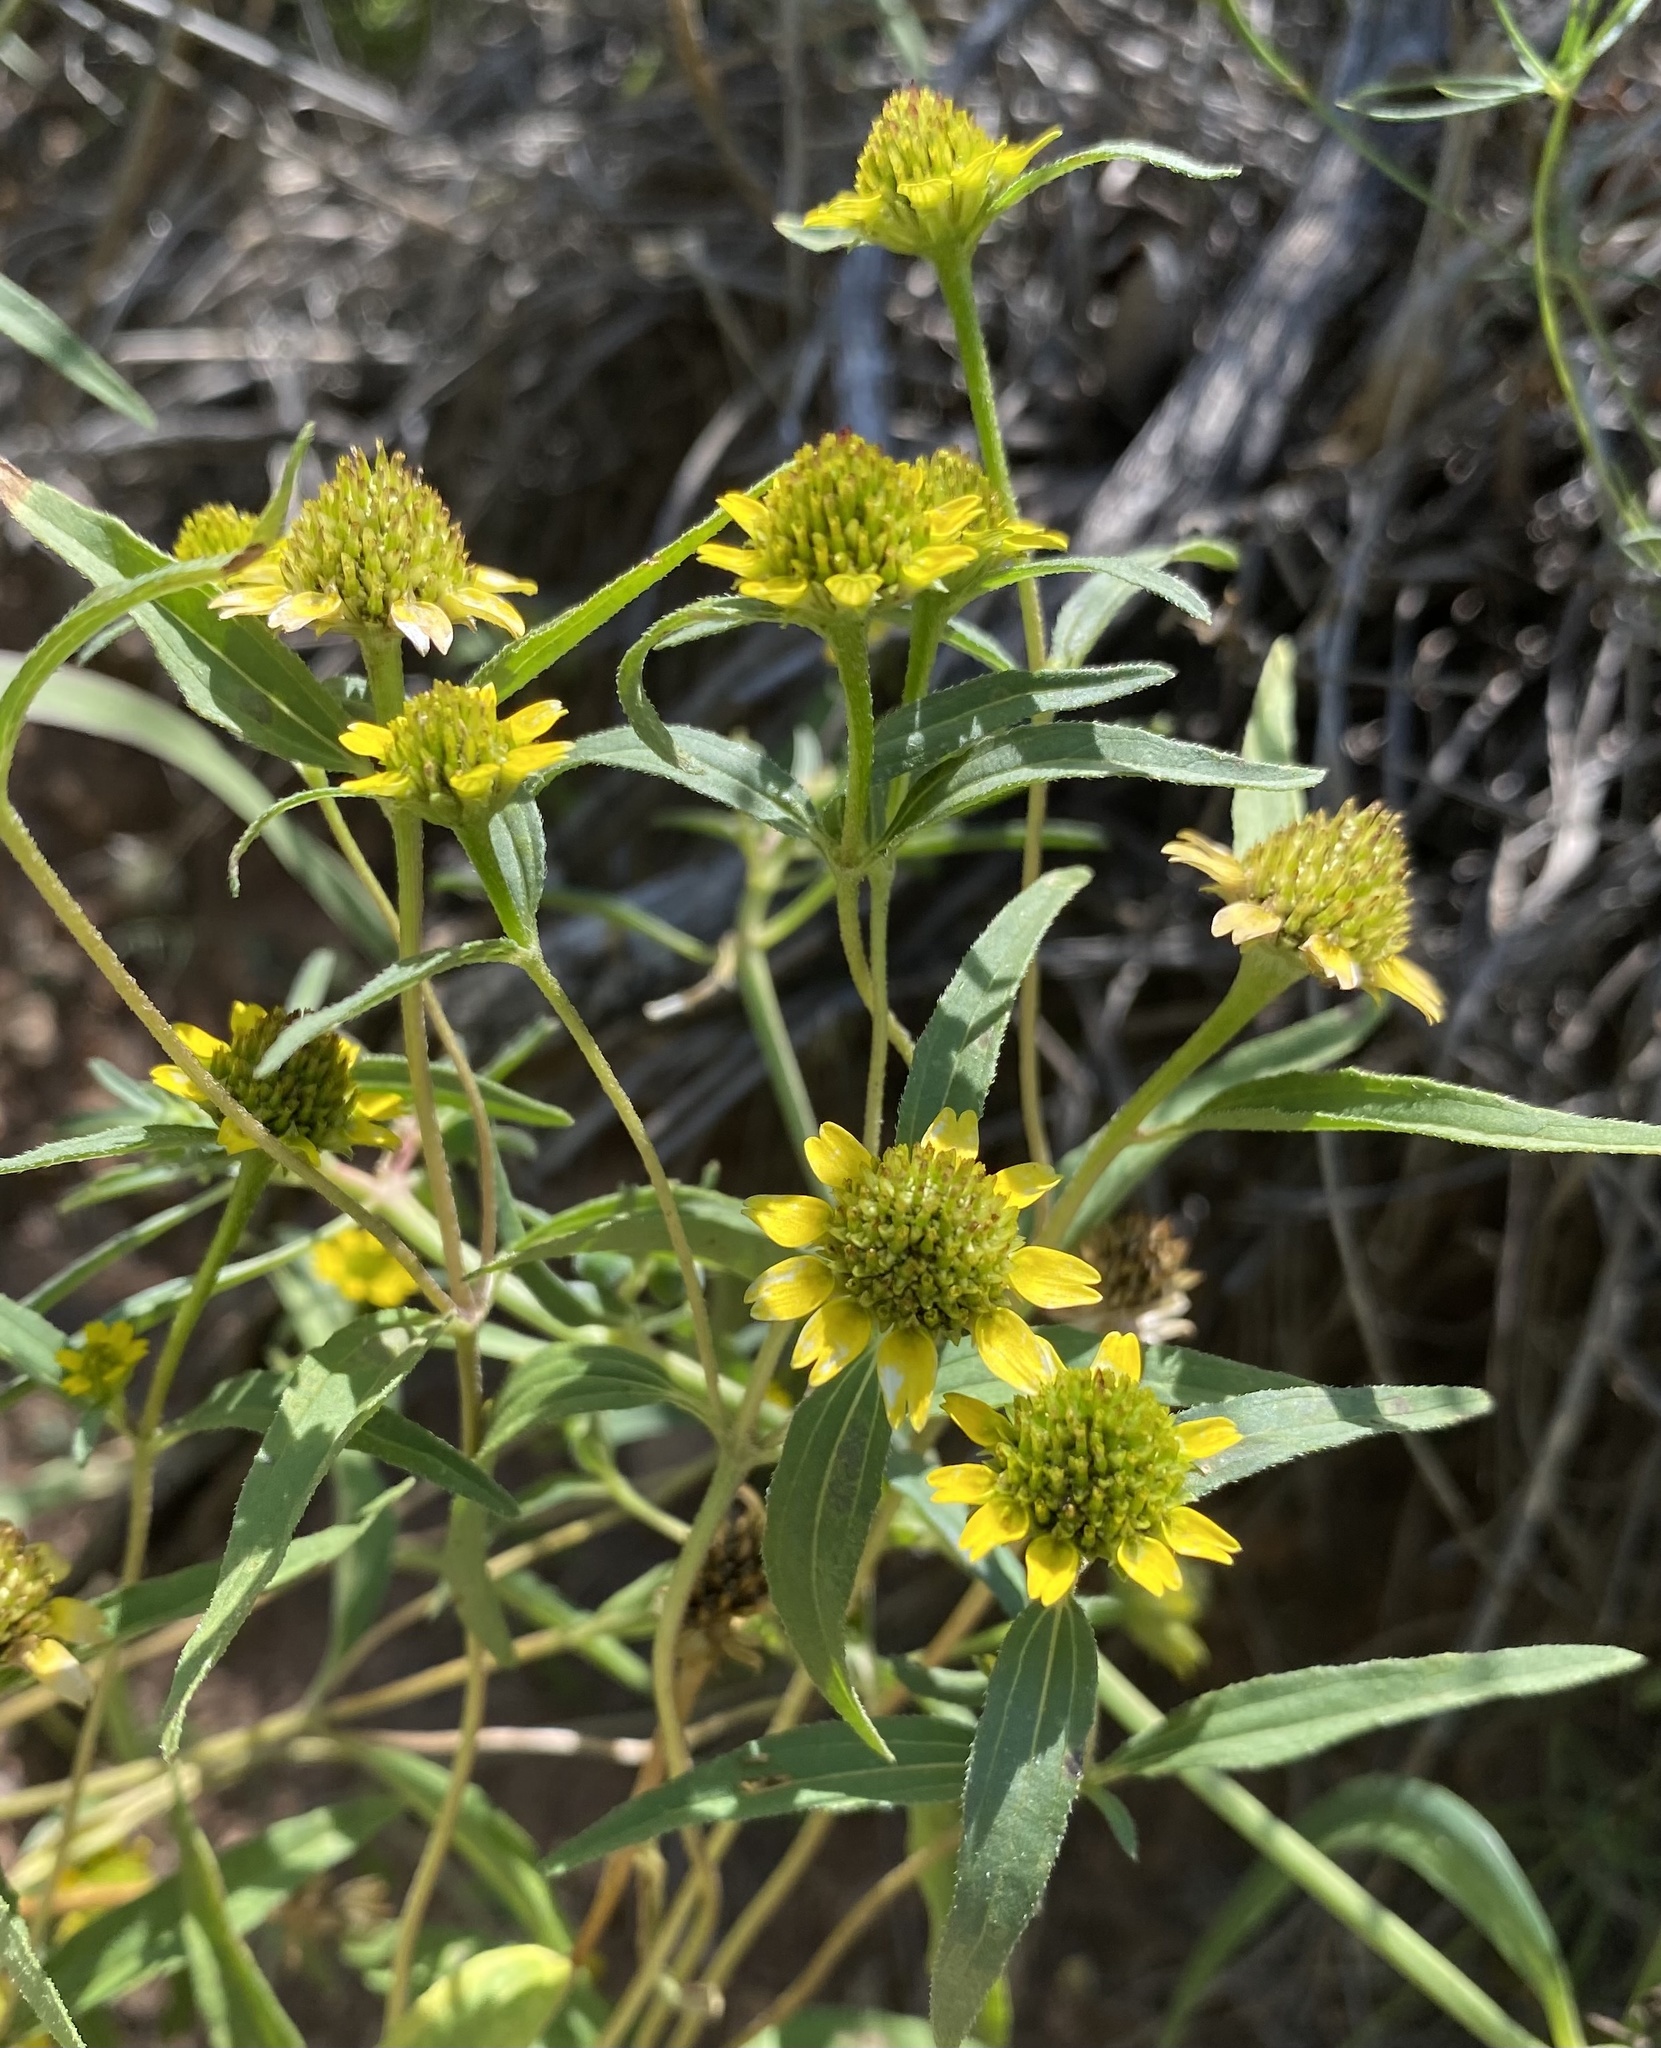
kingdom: Plantae
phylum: Tracheophyta
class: Magnoliopsida
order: Asterales
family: Asteraceae
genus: Sanvitalia
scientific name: Sanvitalia abertii
